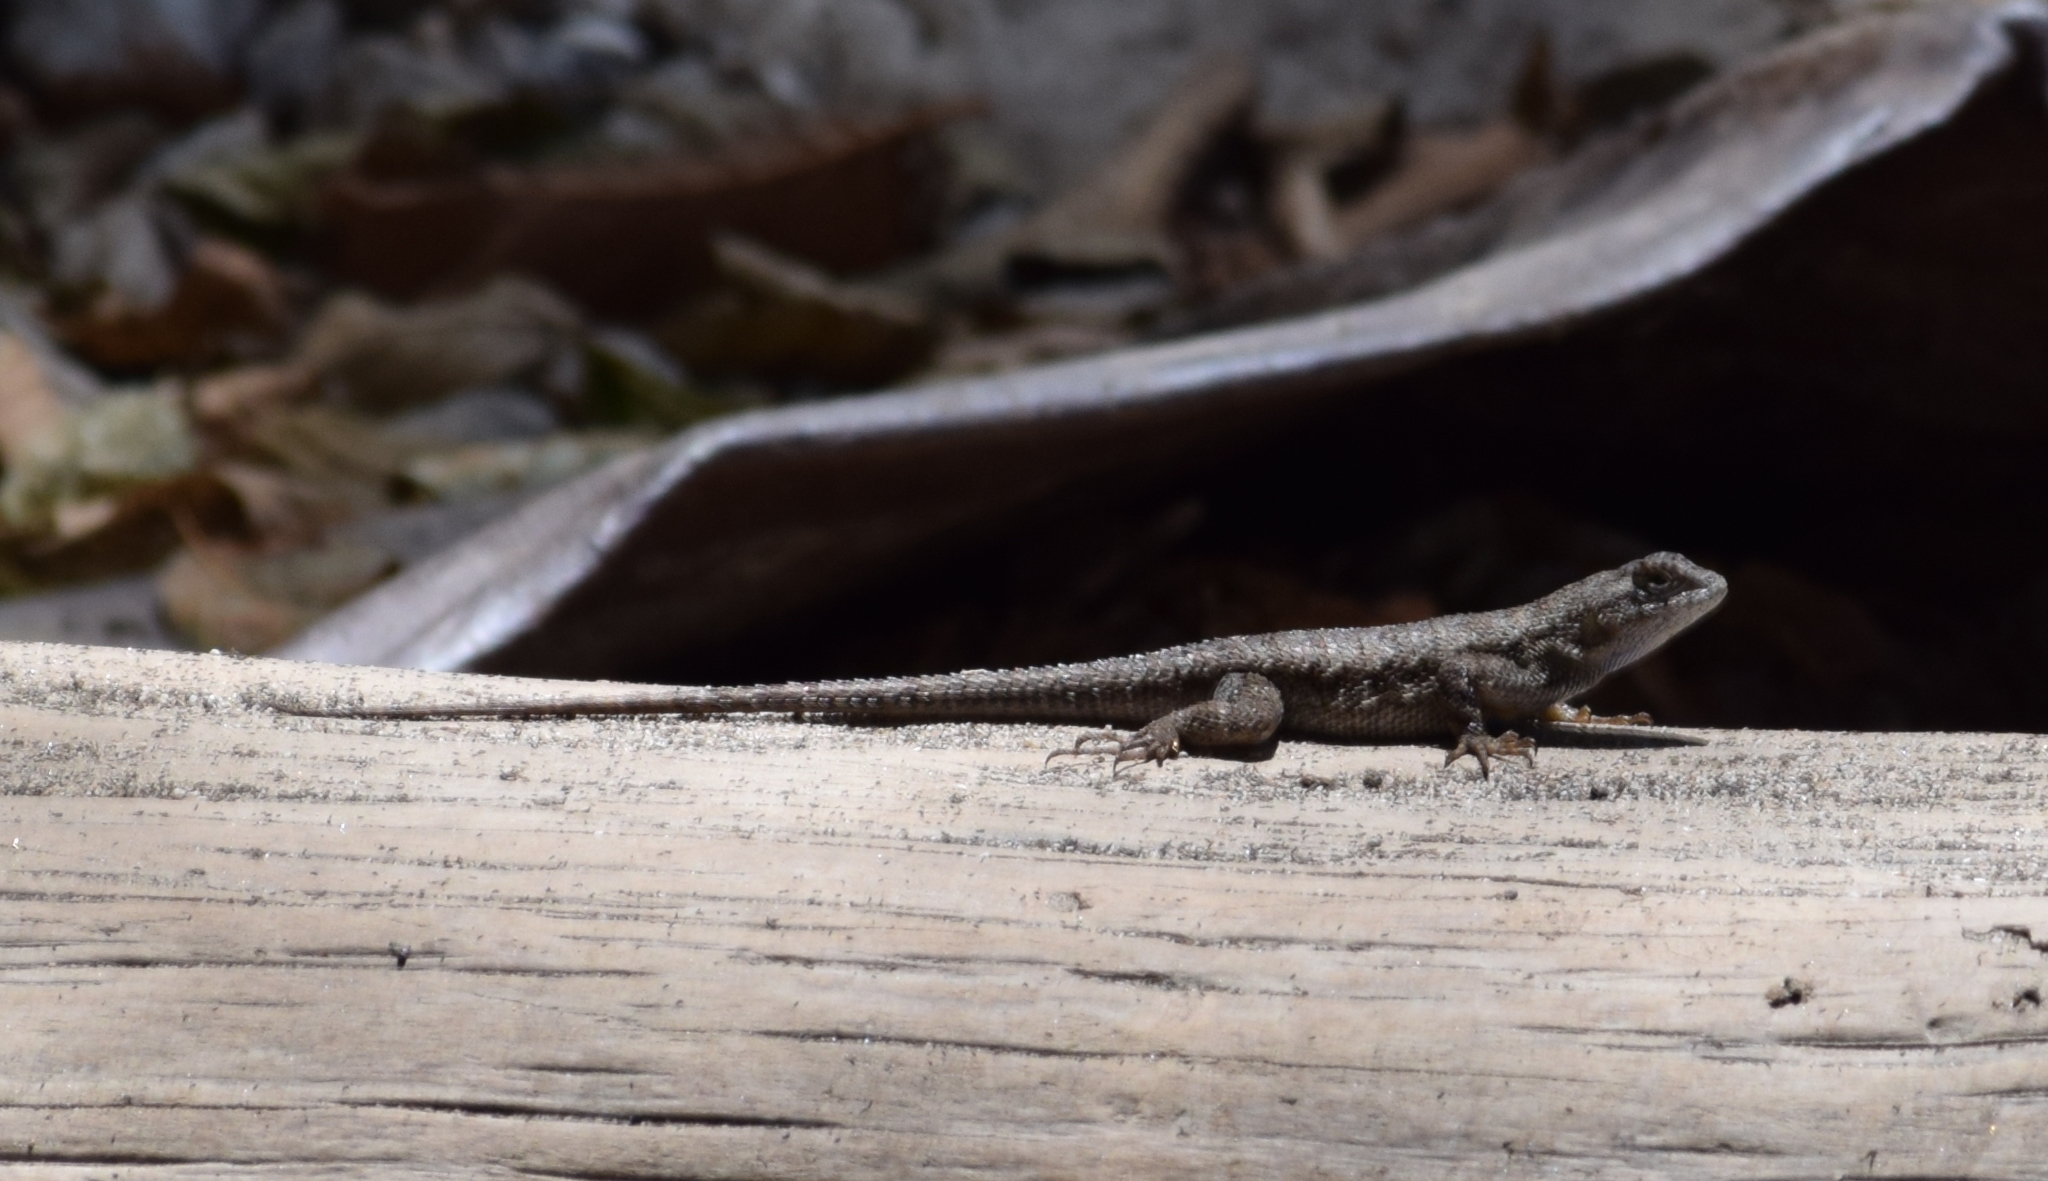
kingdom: Animalia
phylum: Chordata
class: Squamata
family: Phrynosomatidae
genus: Sceloporus
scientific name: Sceloporus occidentalis
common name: Western fence lizard
